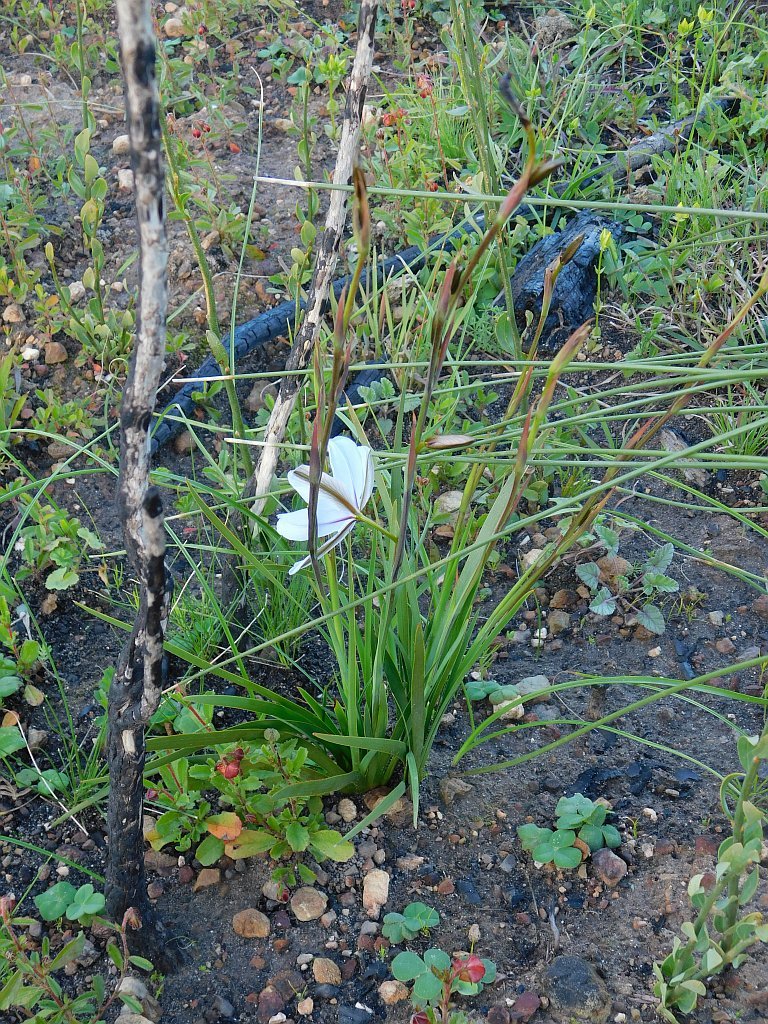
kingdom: Plantae
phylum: Tracheophyta
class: Liliopsida
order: Asparagales
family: Iridaceae
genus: Aristea
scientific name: Aristea spiralis
